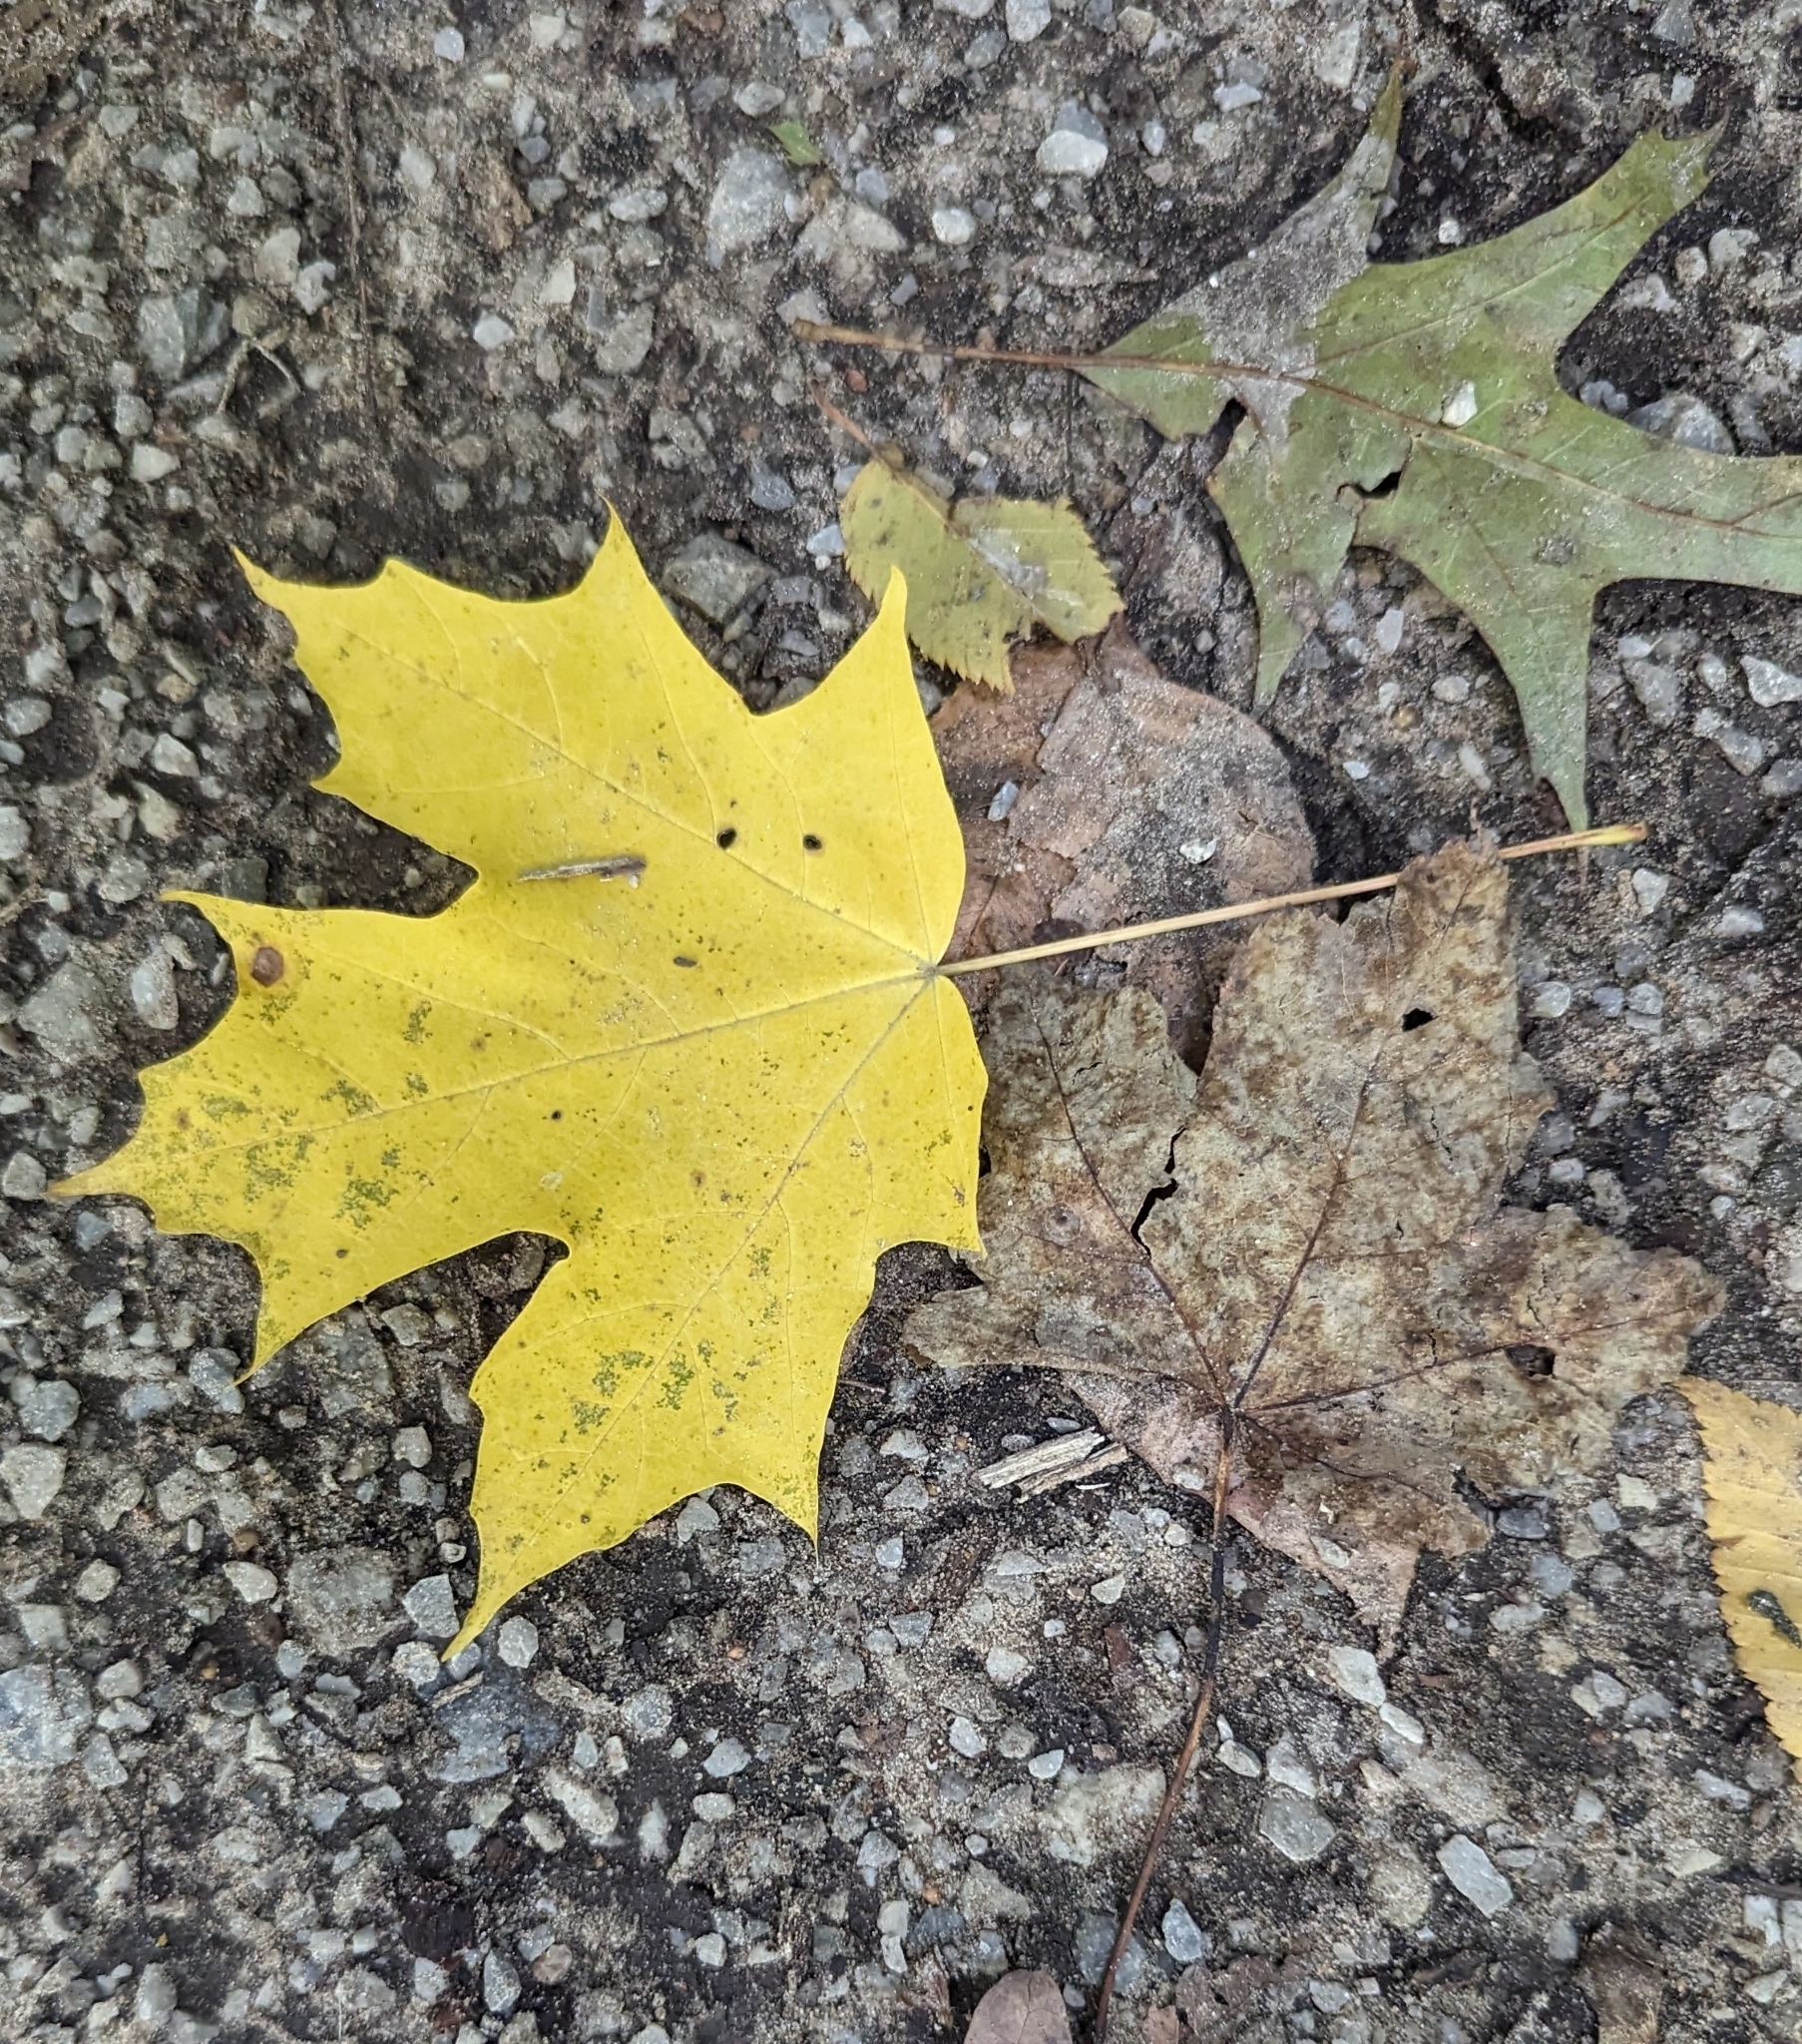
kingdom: Plantae
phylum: Tracheophyta
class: Magnoliopsida
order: Sapindales
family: Sapindaceae
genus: Acer
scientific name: Acer saccharum
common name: Sugar maple
